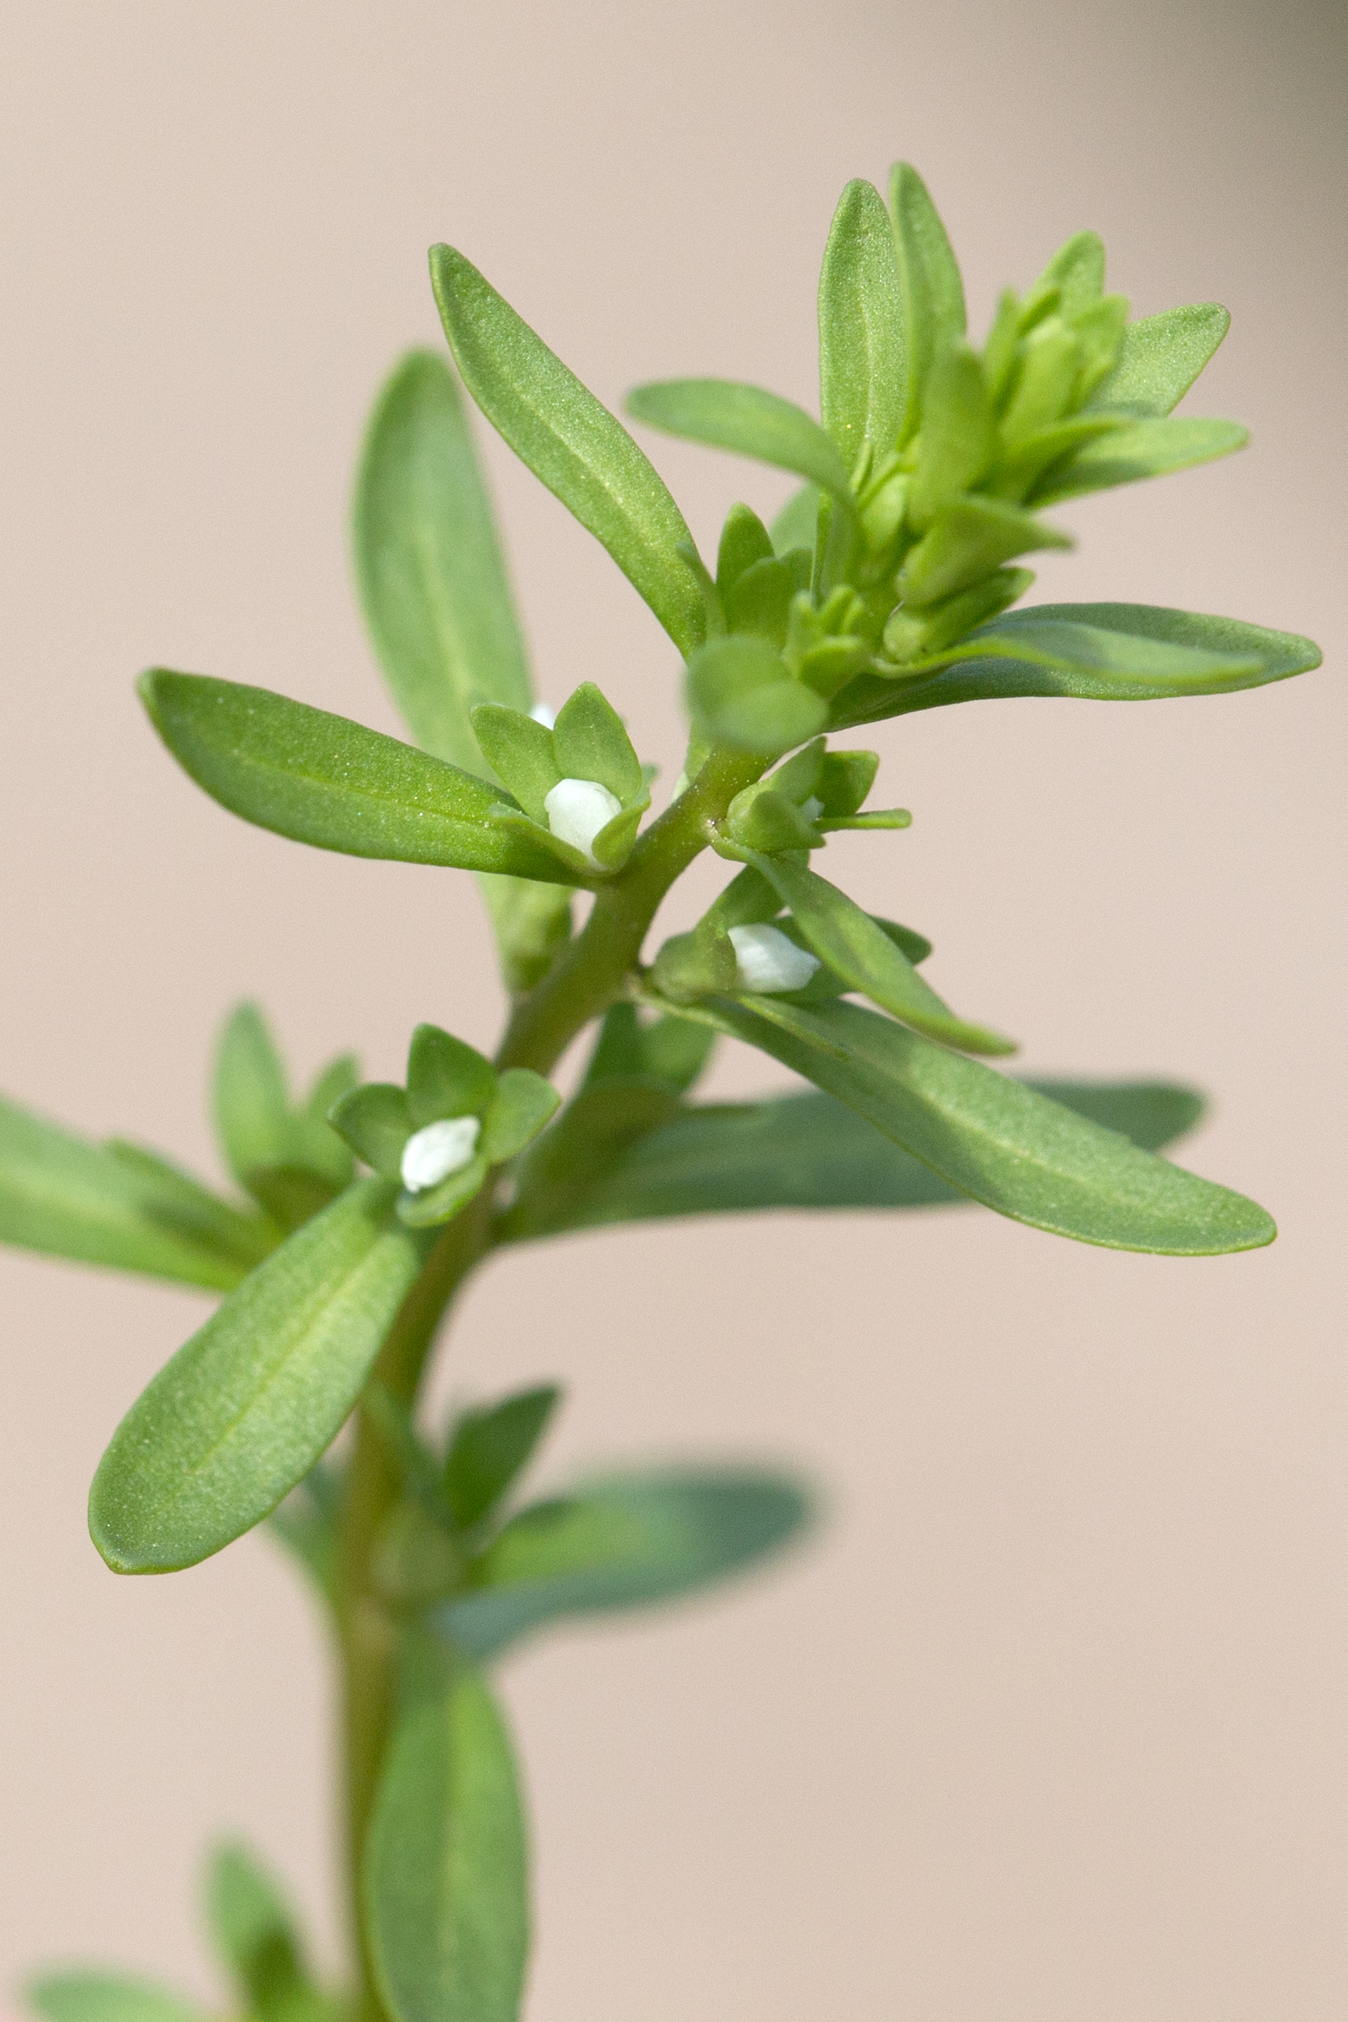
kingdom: Plantae
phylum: Tracheophyta
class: Magnoliopsida
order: Lamiales
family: Plantaginaceae
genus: Veronica
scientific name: Veronica peregrina
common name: Neckweed
